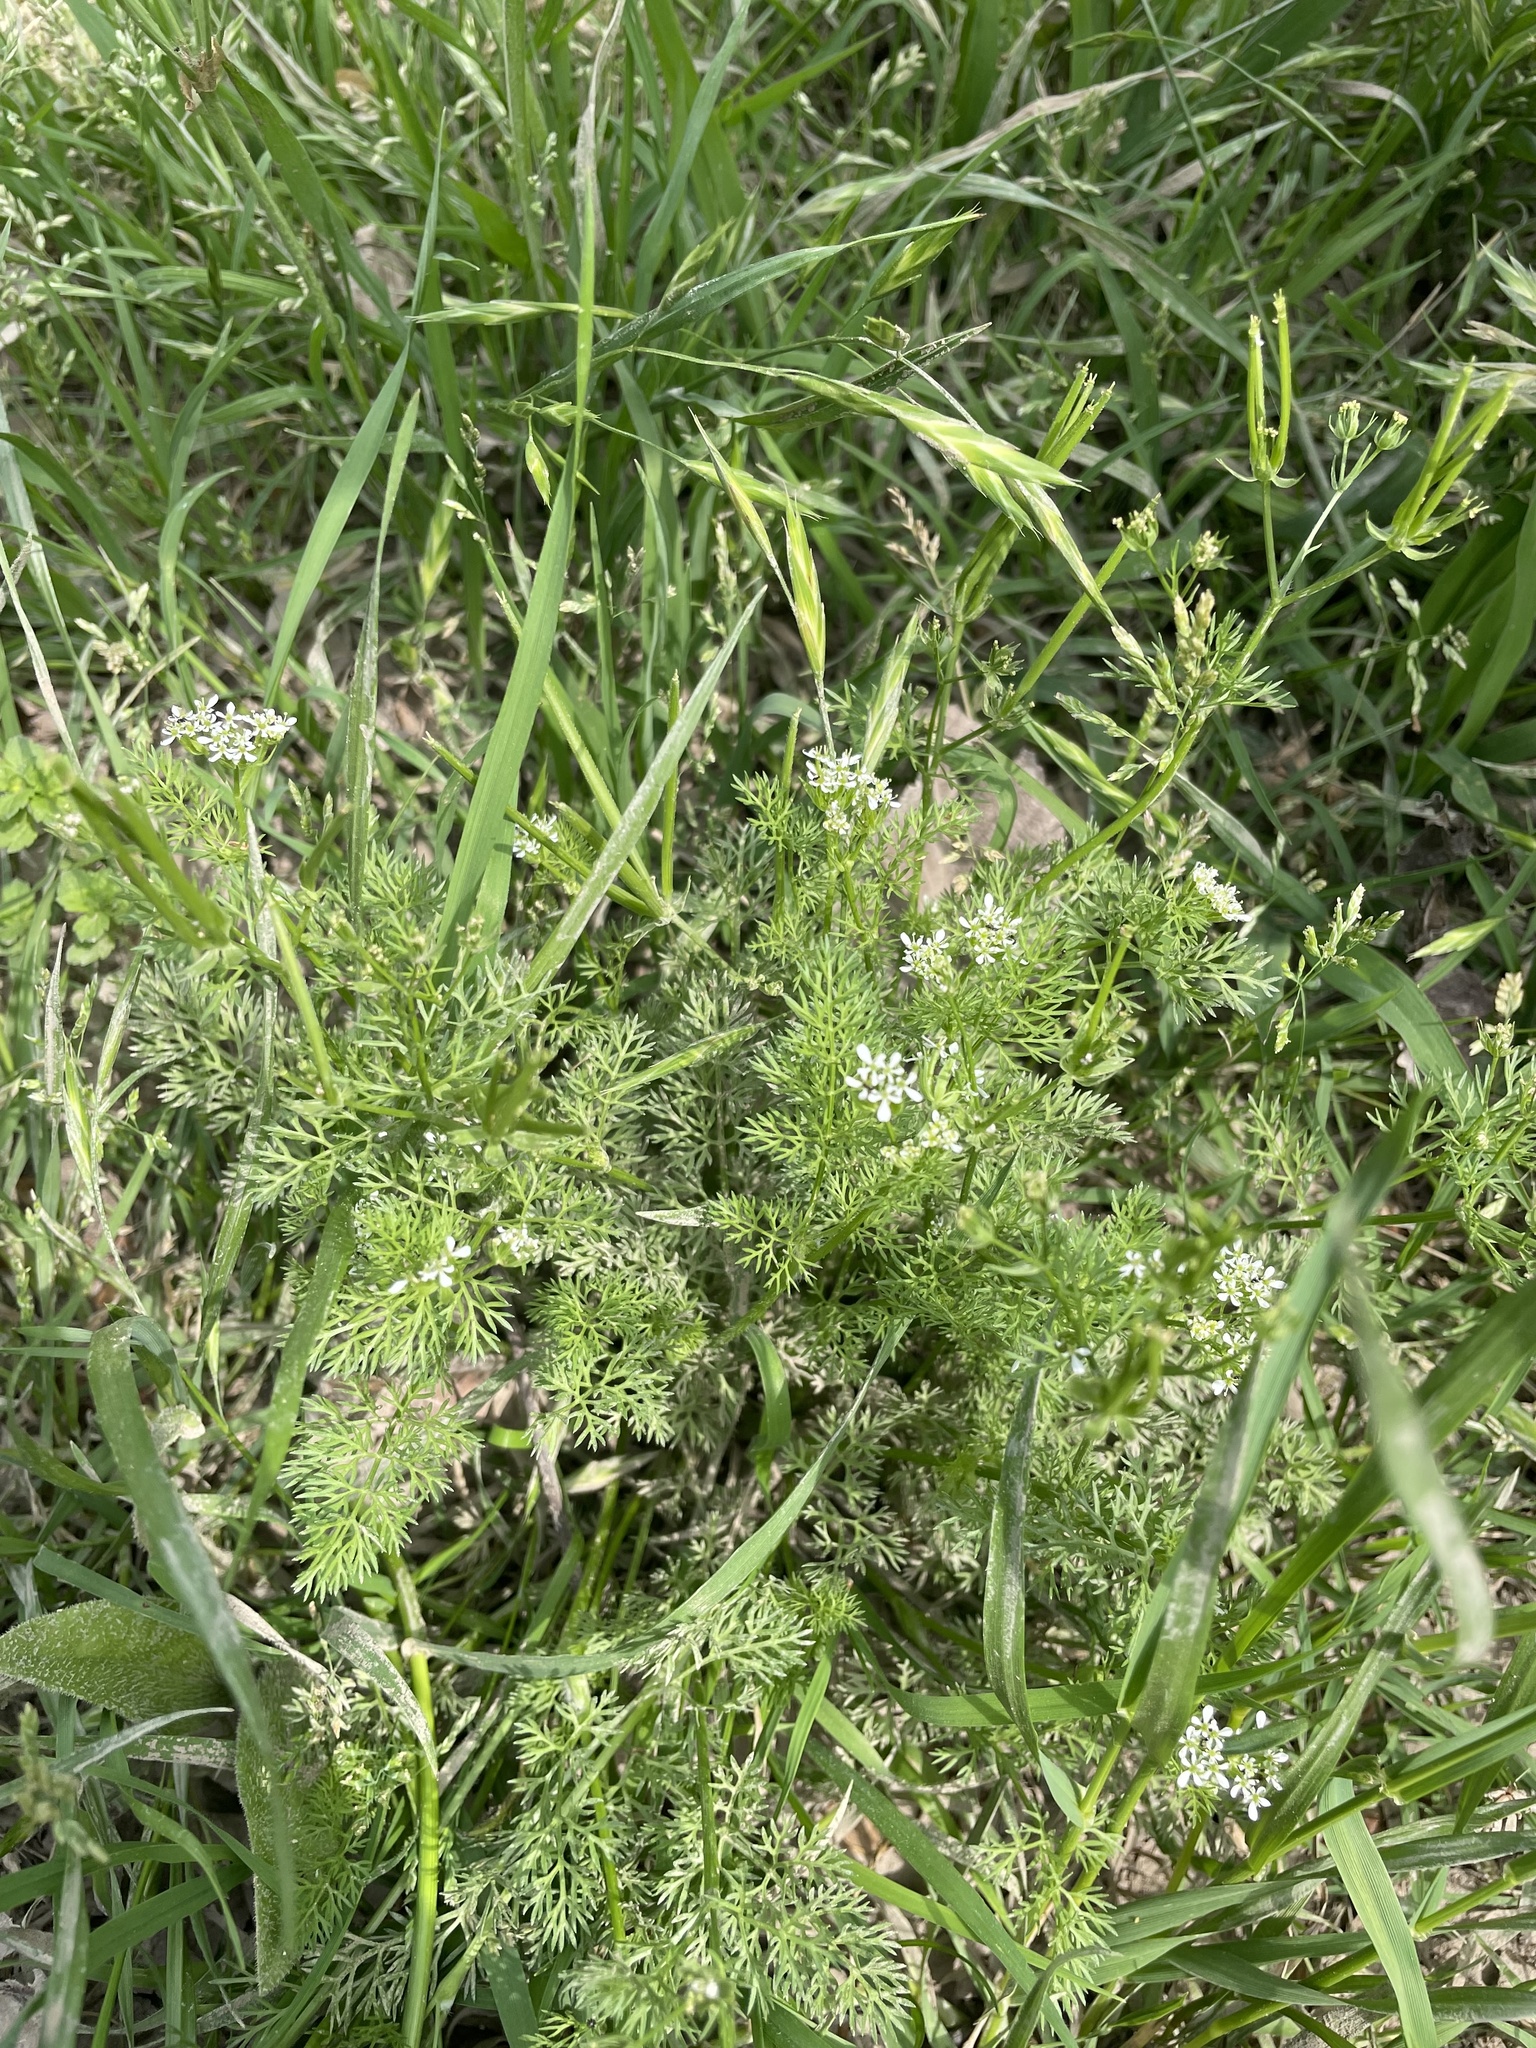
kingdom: Plantae
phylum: Tracheophyta
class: Magnoliopsida
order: Apiales
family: Apiaceae
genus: Scandix
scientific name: Scandix pecten-veneris
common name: Shepherd's-needle
